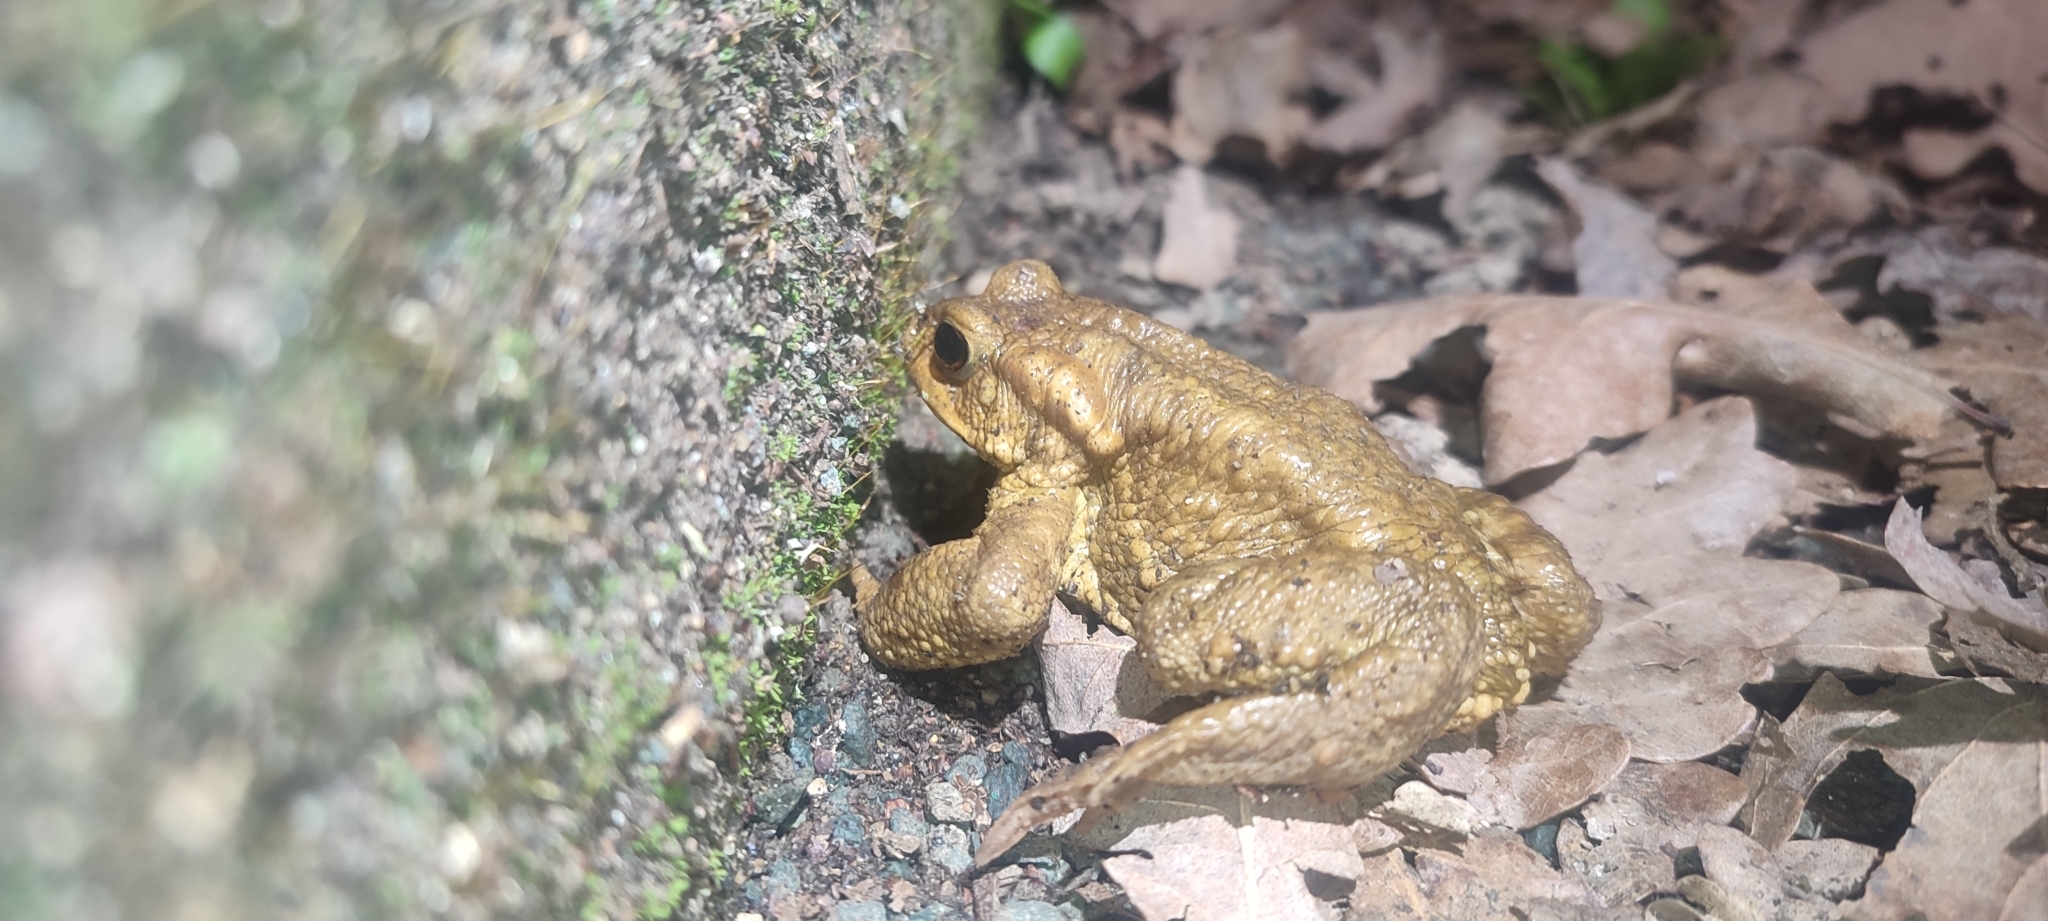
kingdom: Animalia
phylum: Chordata
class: Amphibia
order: Anura
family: Bufonidae
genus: Bufo
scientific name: Bufo spinosus
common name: Western common toad
